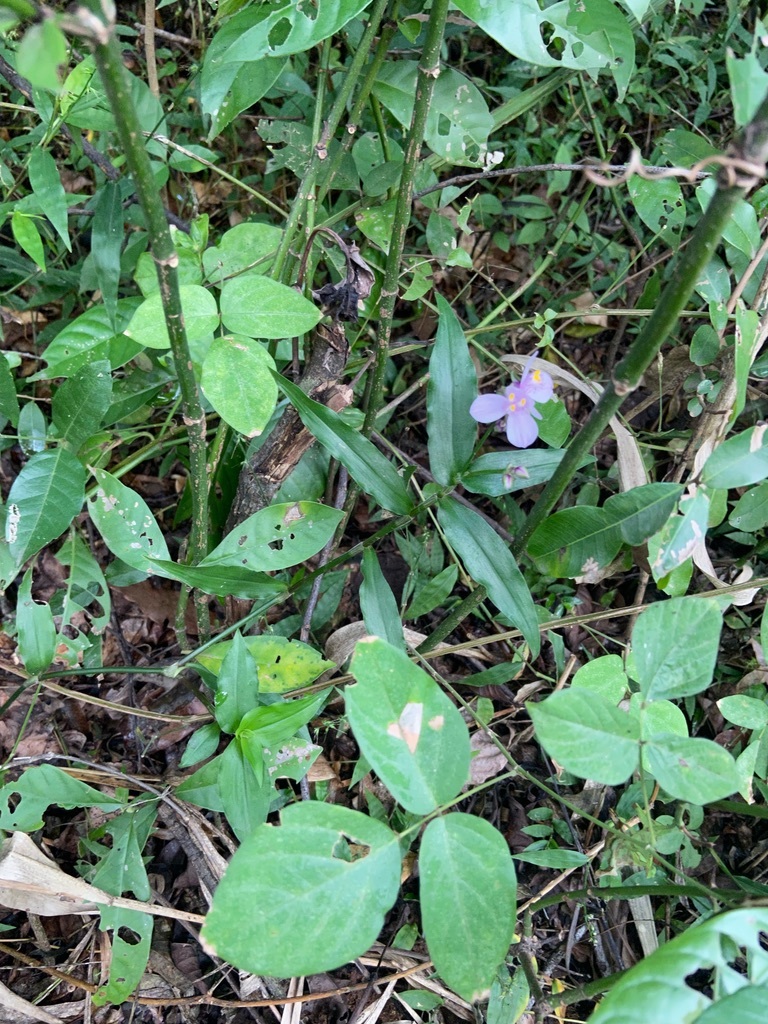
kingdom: Plantae
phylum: Tracheophyta
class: Liliopsida
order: Commelinales
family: Commelinaceae
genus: Callisia
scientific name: Callisia diuretica
